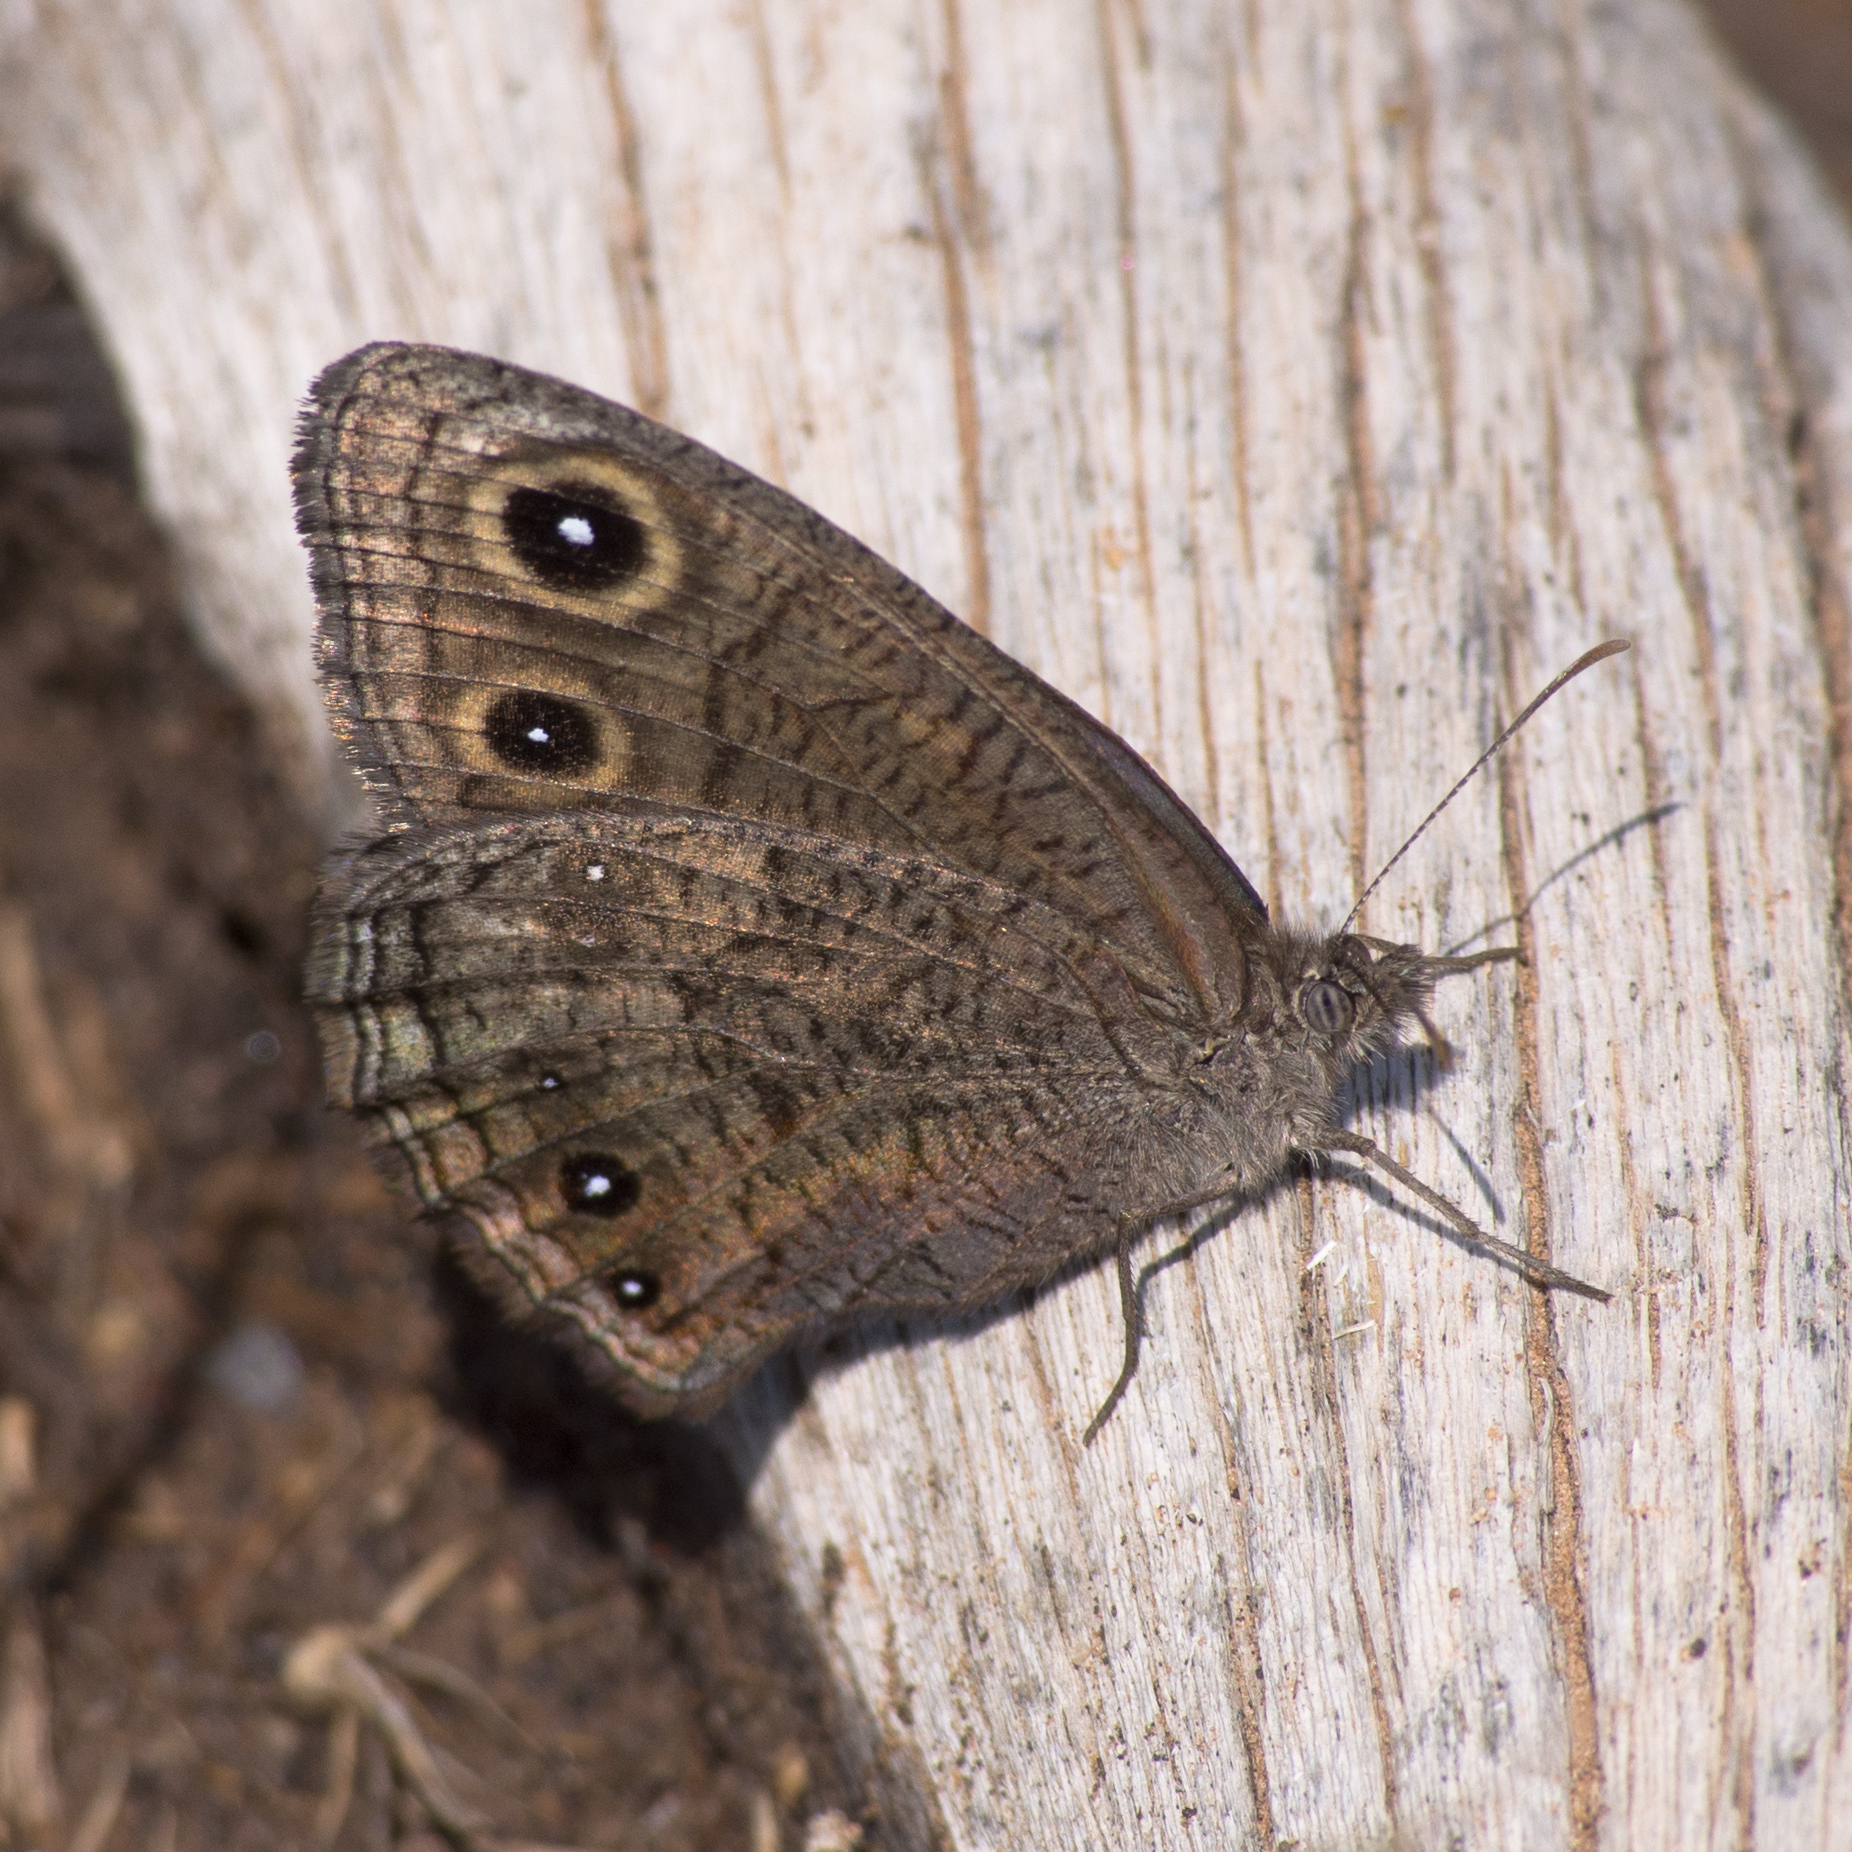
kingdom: Animalia
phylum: Arthropoda
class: Insecta
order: Lepidoptera
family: Nymphalidae
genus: Cercyonis
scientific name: Cercyonis sthenele
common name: Great basin wood-nymph
